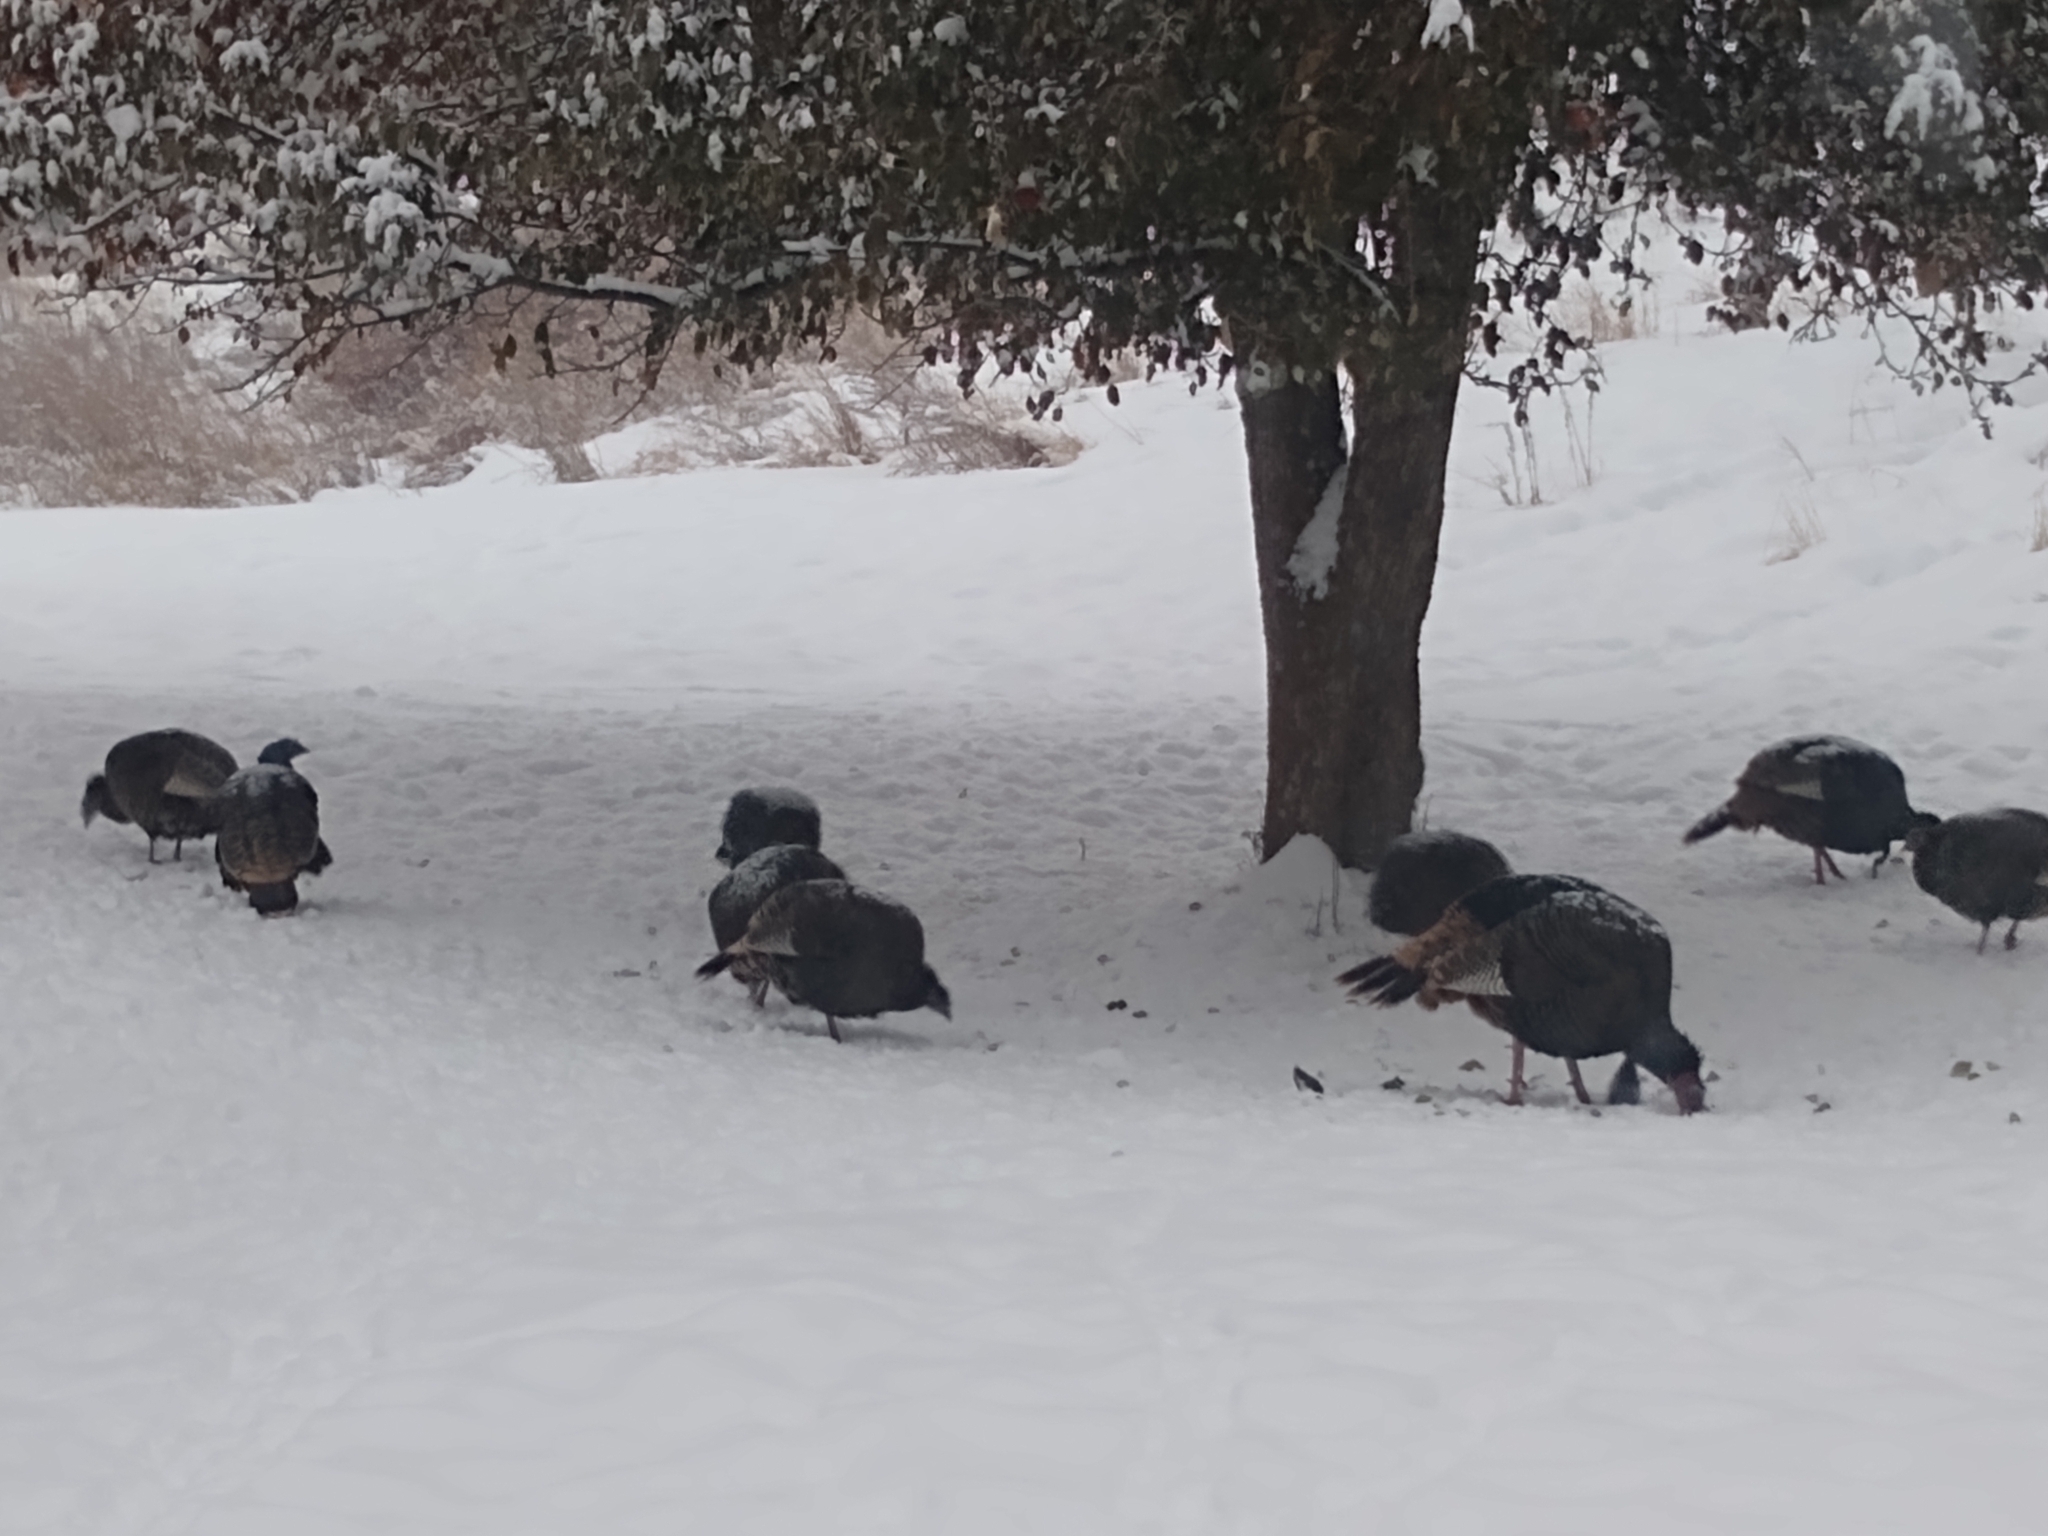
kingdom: Animalia
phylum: Chordata
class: Aves
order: Galliformes
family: Phasianidae
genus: Meleagris
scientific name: Meleagris gallopavo
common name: Wild turkey
